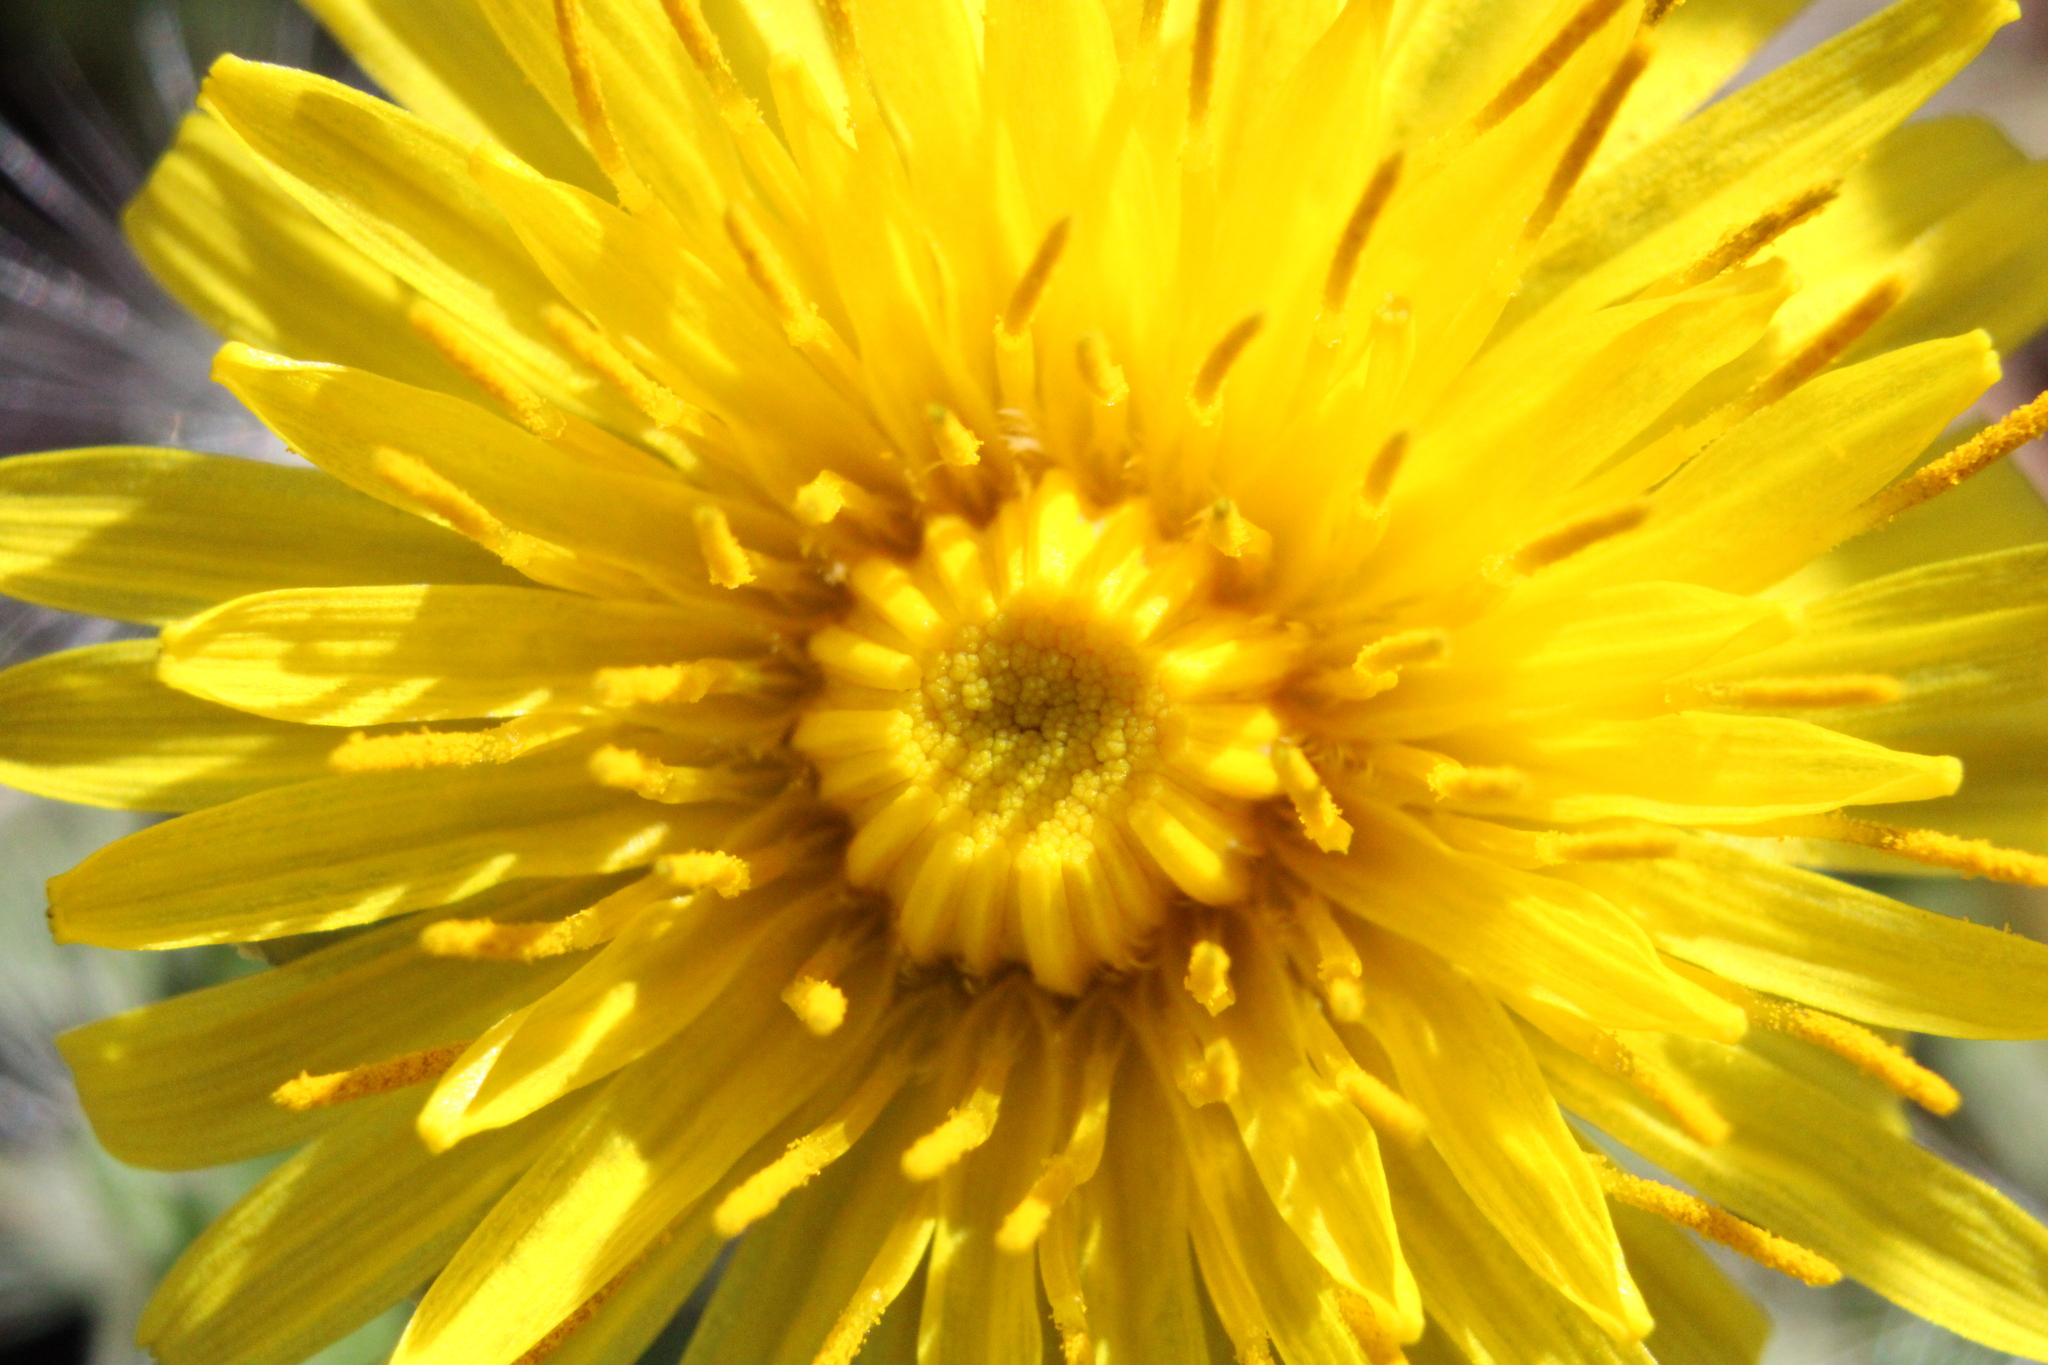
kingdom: Plantae
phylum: Tracheophyta
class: Magnoliopsida
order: Asterales
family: Asteraceae
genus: Taraxacum
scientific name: Taraxacum
